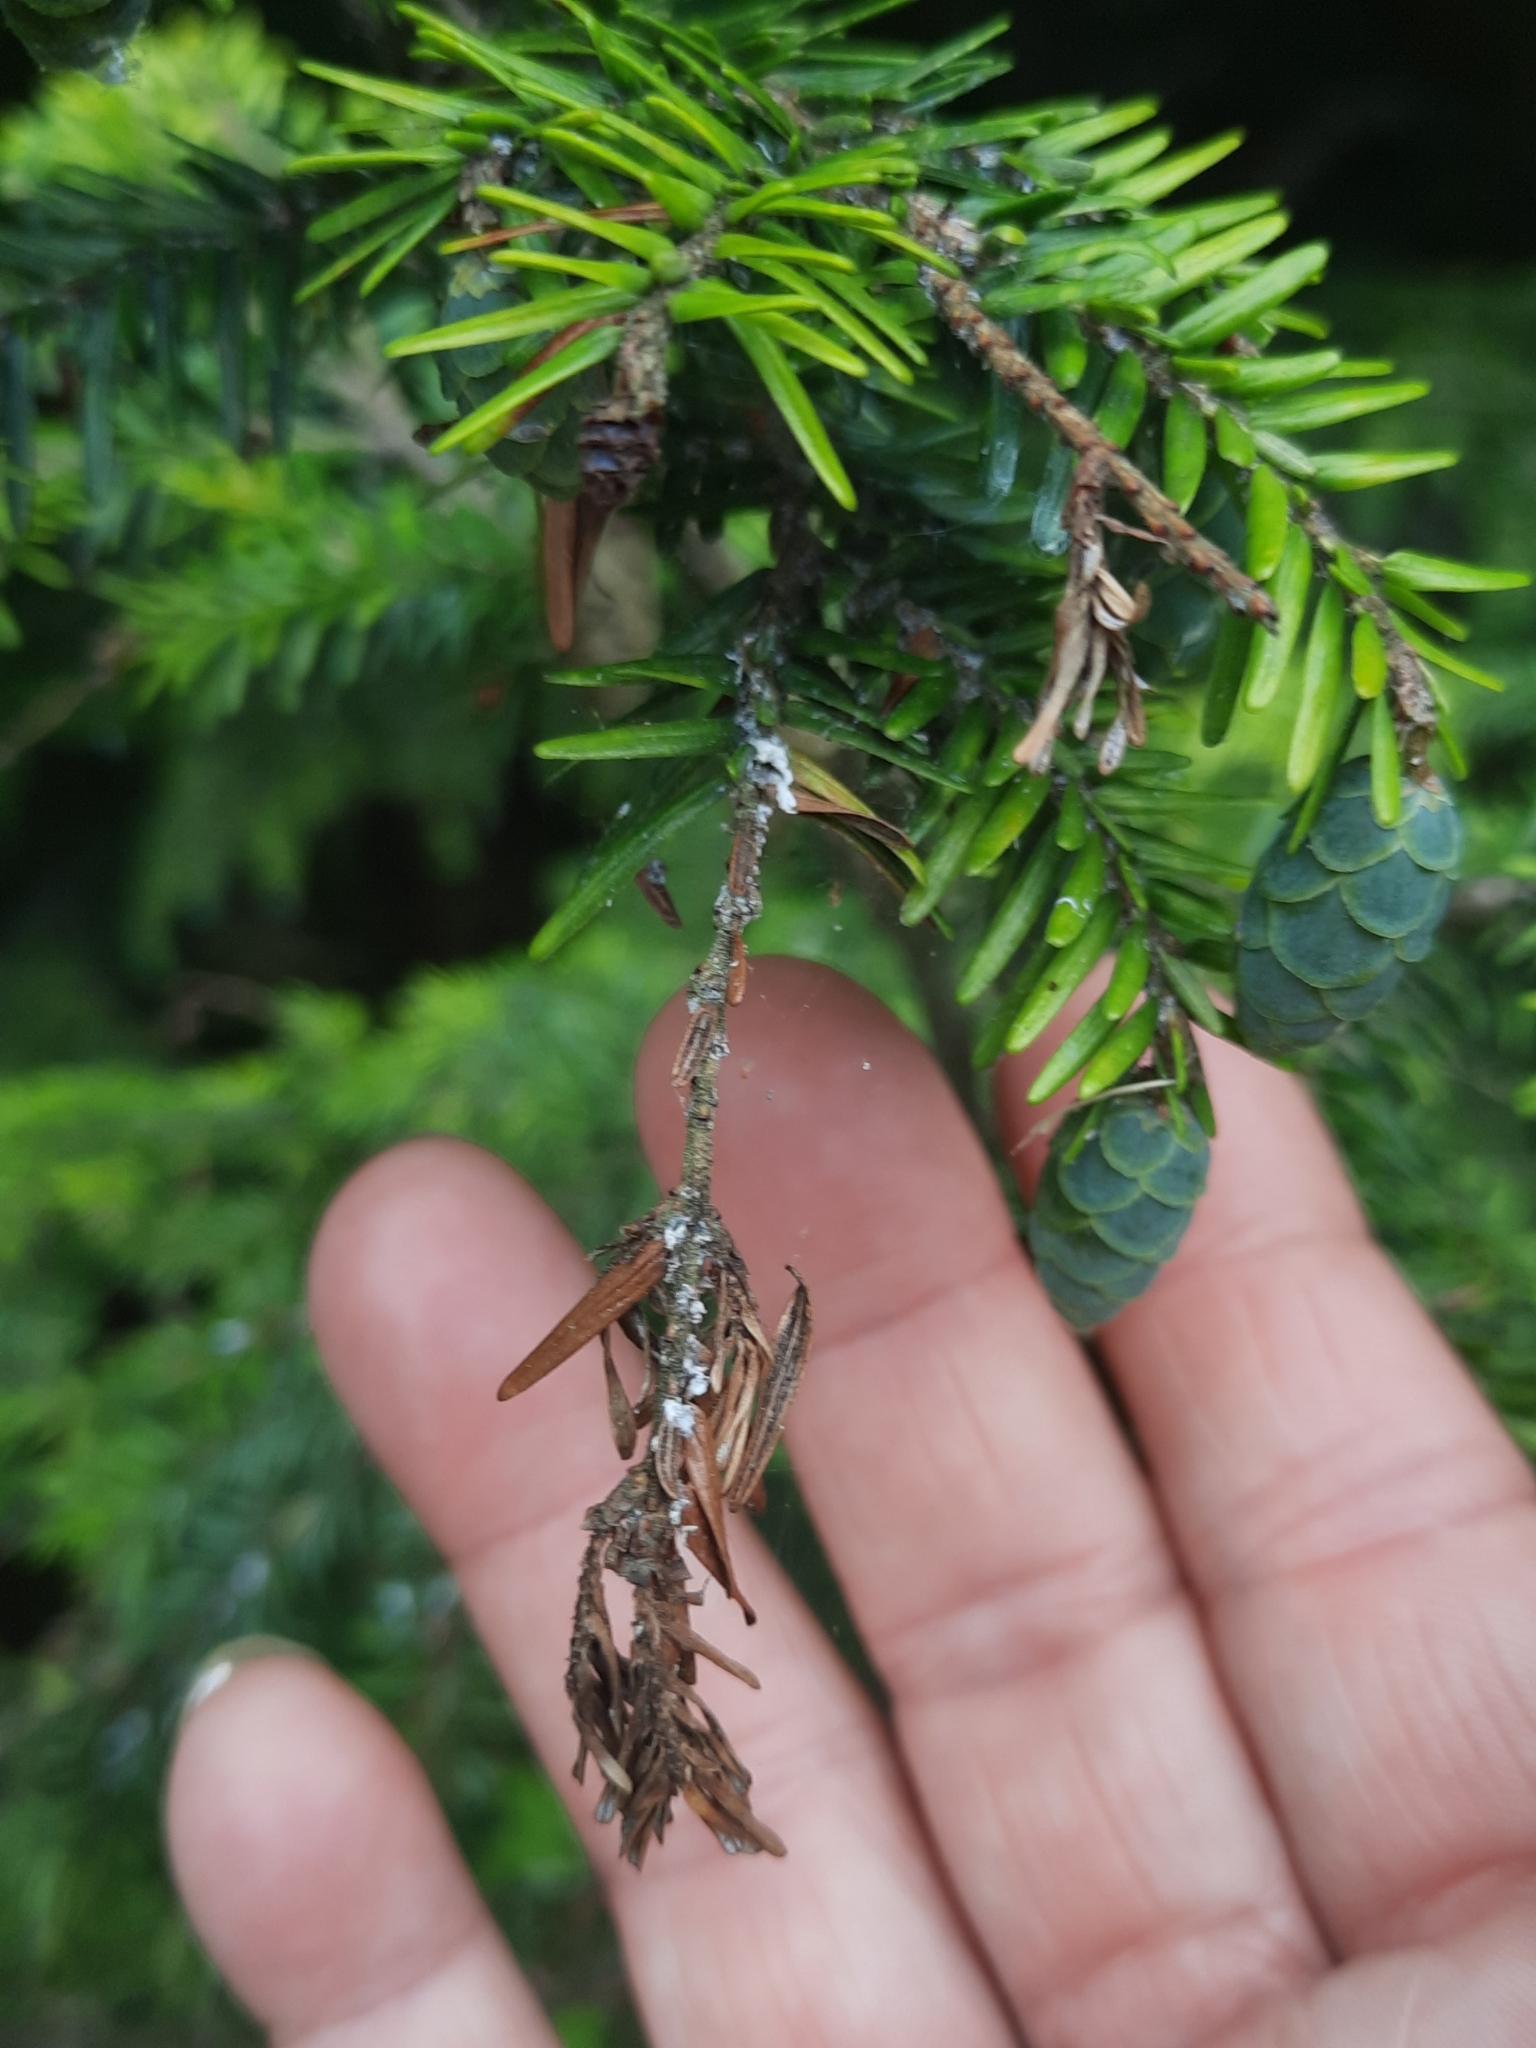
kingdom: Animalia
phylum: Arthropoda
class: Insecta
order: Hemiptera
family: Adelgidae
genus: Adelges
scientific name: Adelges tsugae
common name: Hemlock woolly adelgid
